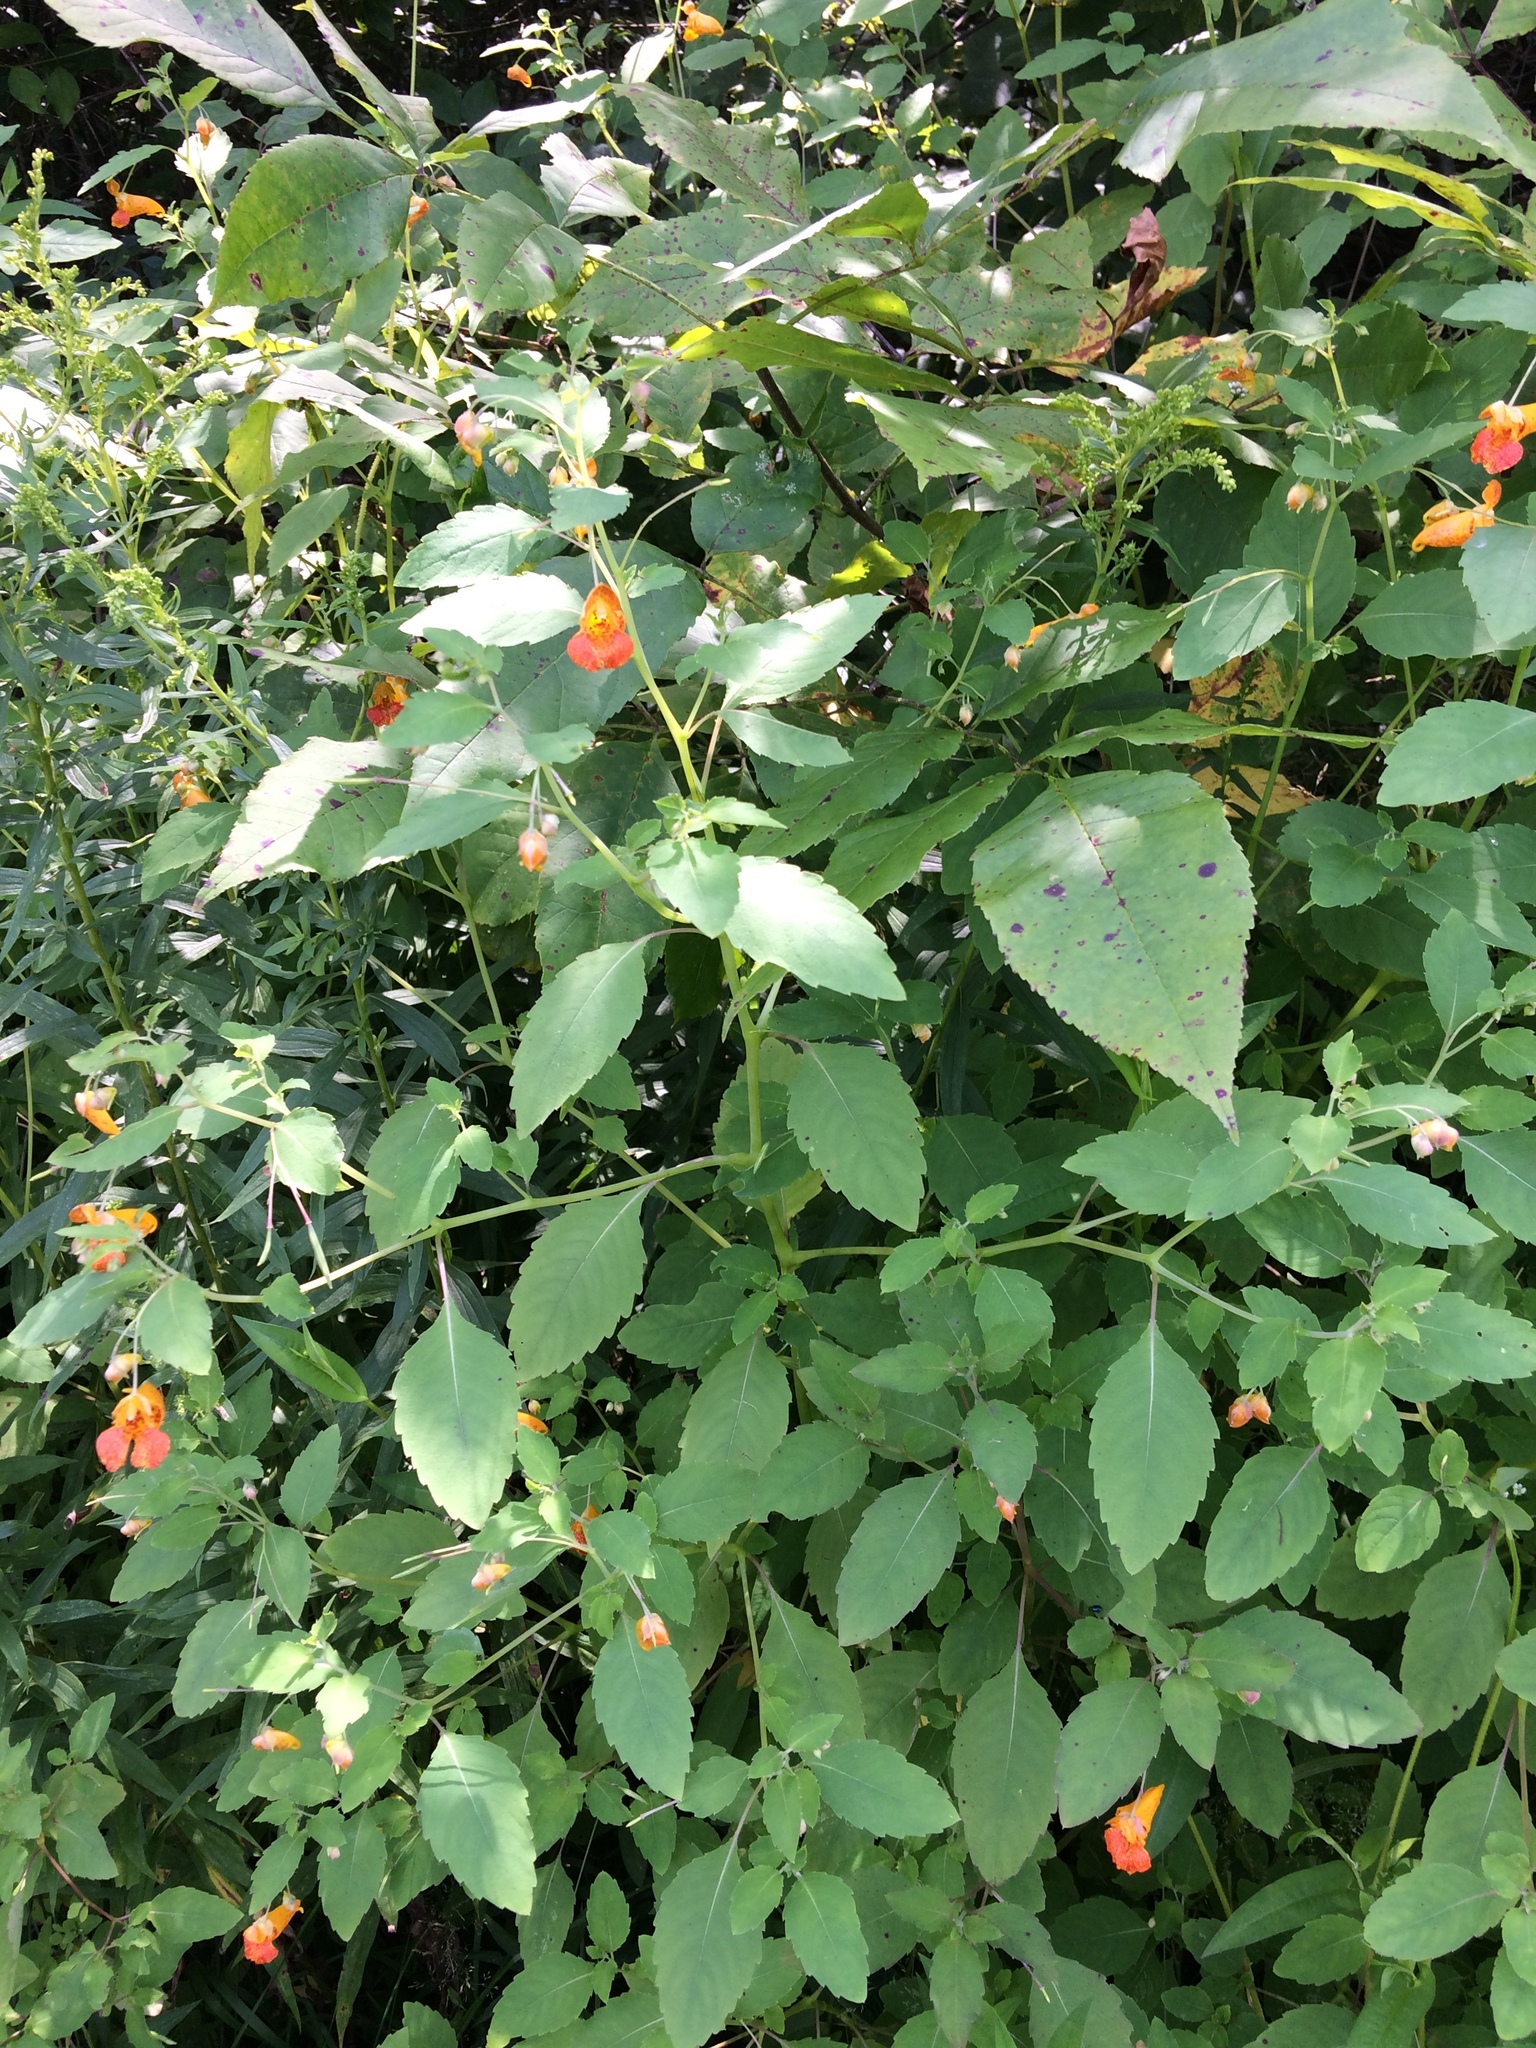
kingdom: Plantae
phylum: Tracheophyta
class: Magnoliopsida
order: Ericales
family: Balsaminaceae
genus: Impatiens
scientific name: Impatiens capensis
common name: Orange balsam
